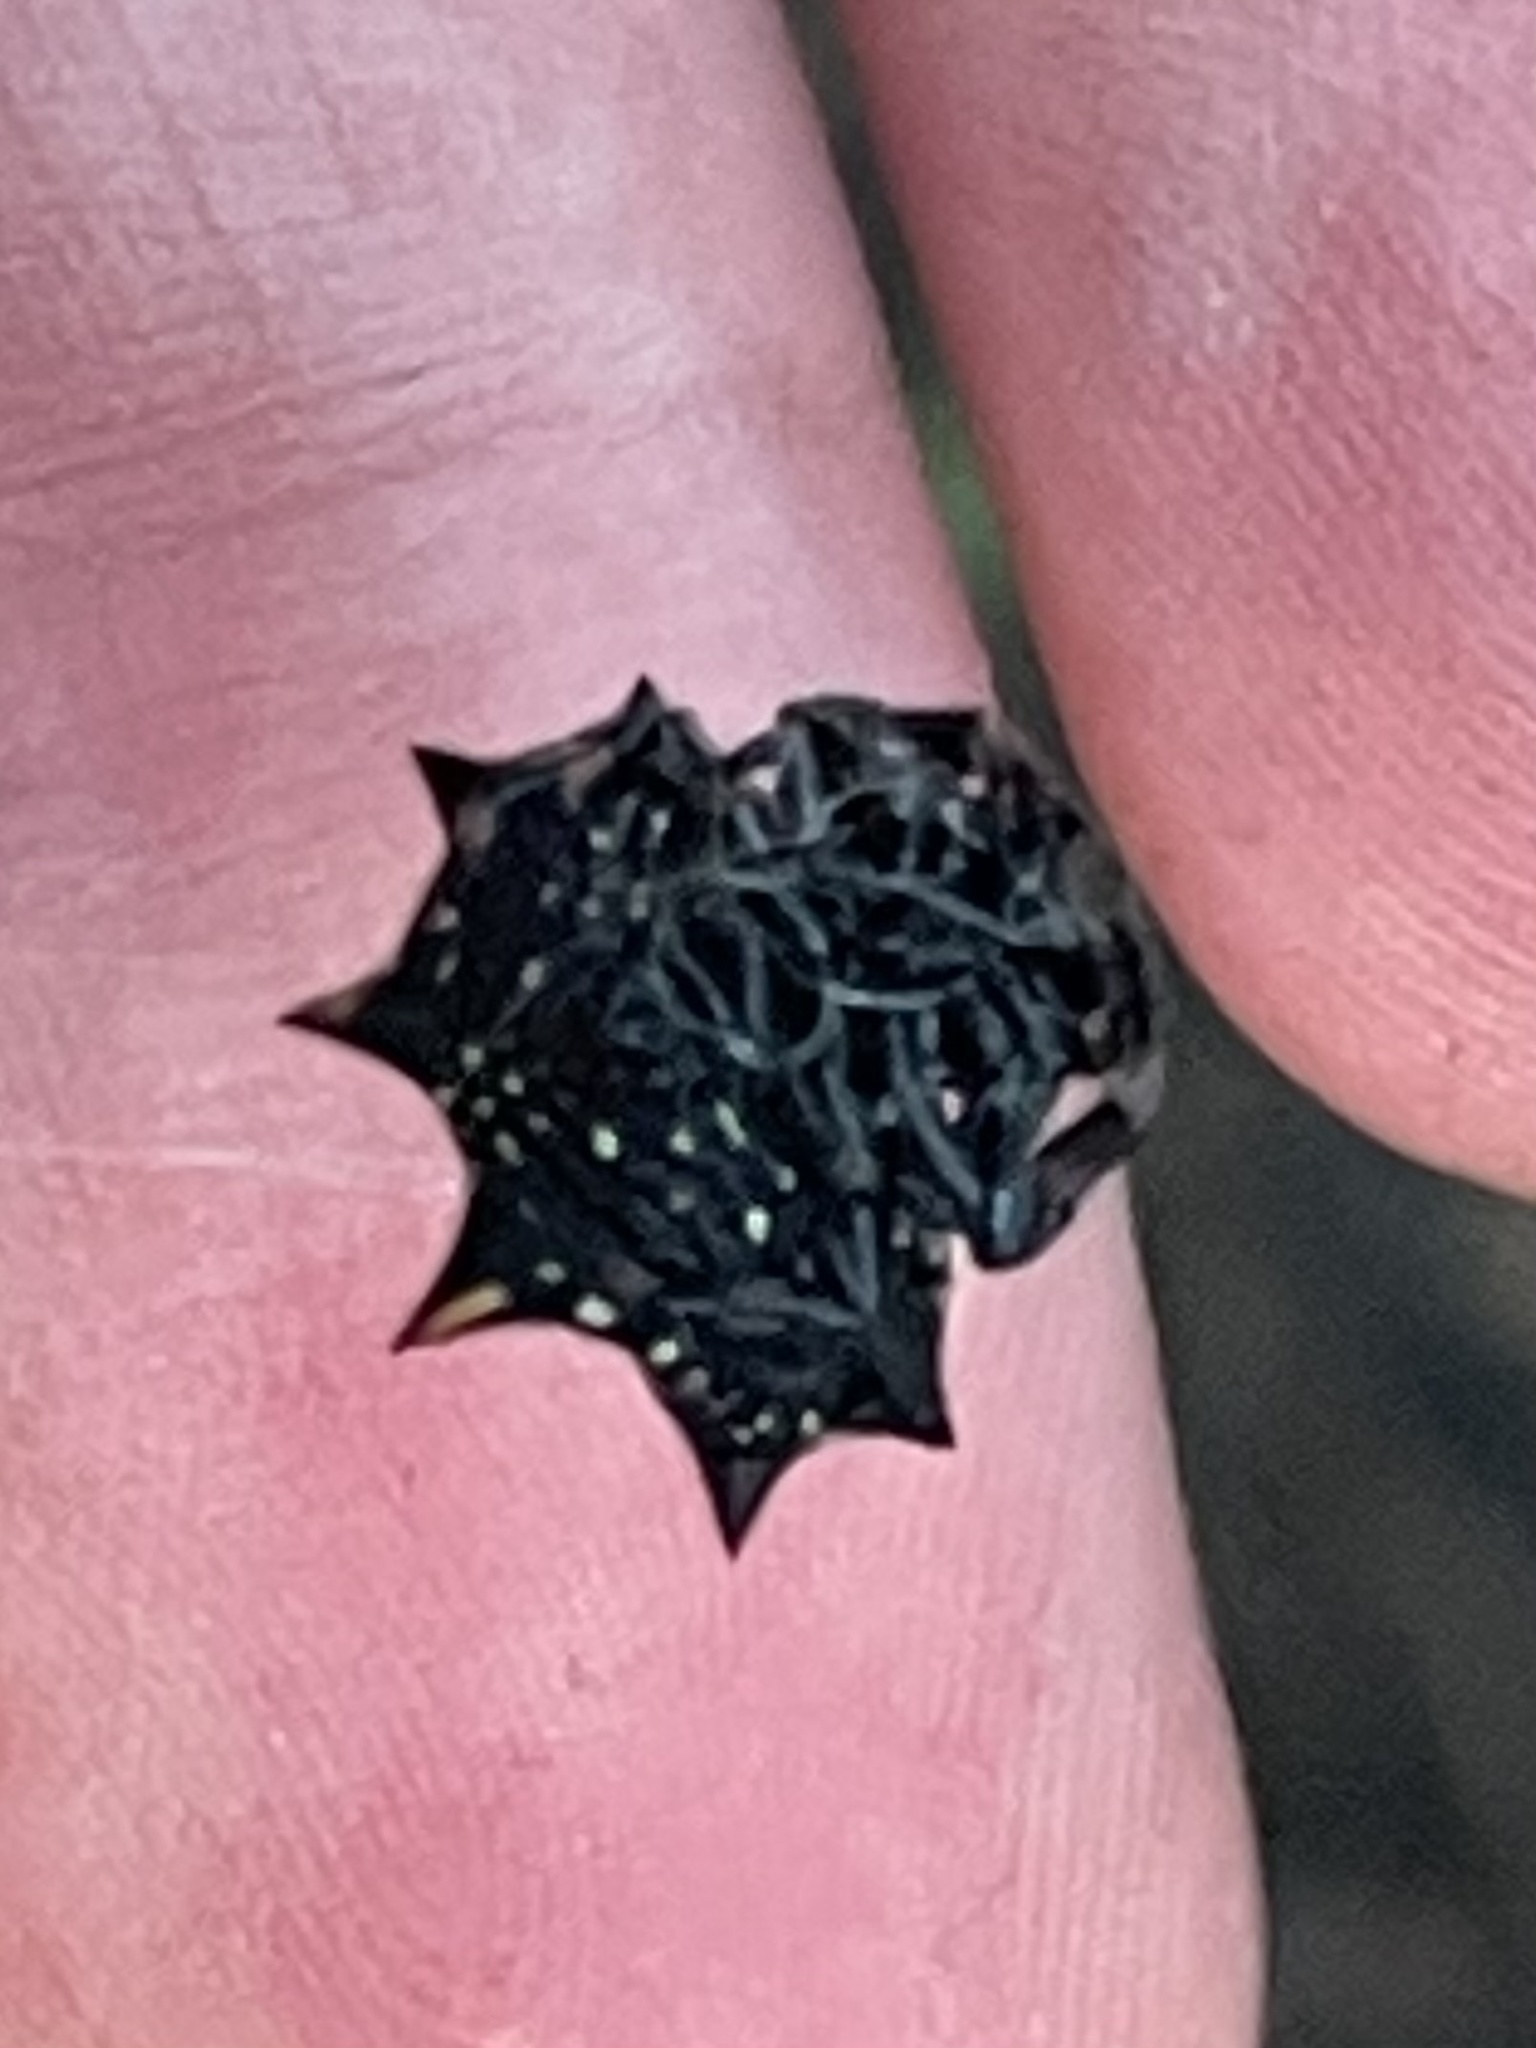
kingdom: Animalia
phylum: Arthropoda
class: Arachnida
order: Araneae
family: Araneidae
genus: Gasteracantha
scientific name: Gasteracantha cancriformis
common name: Orb weavers
